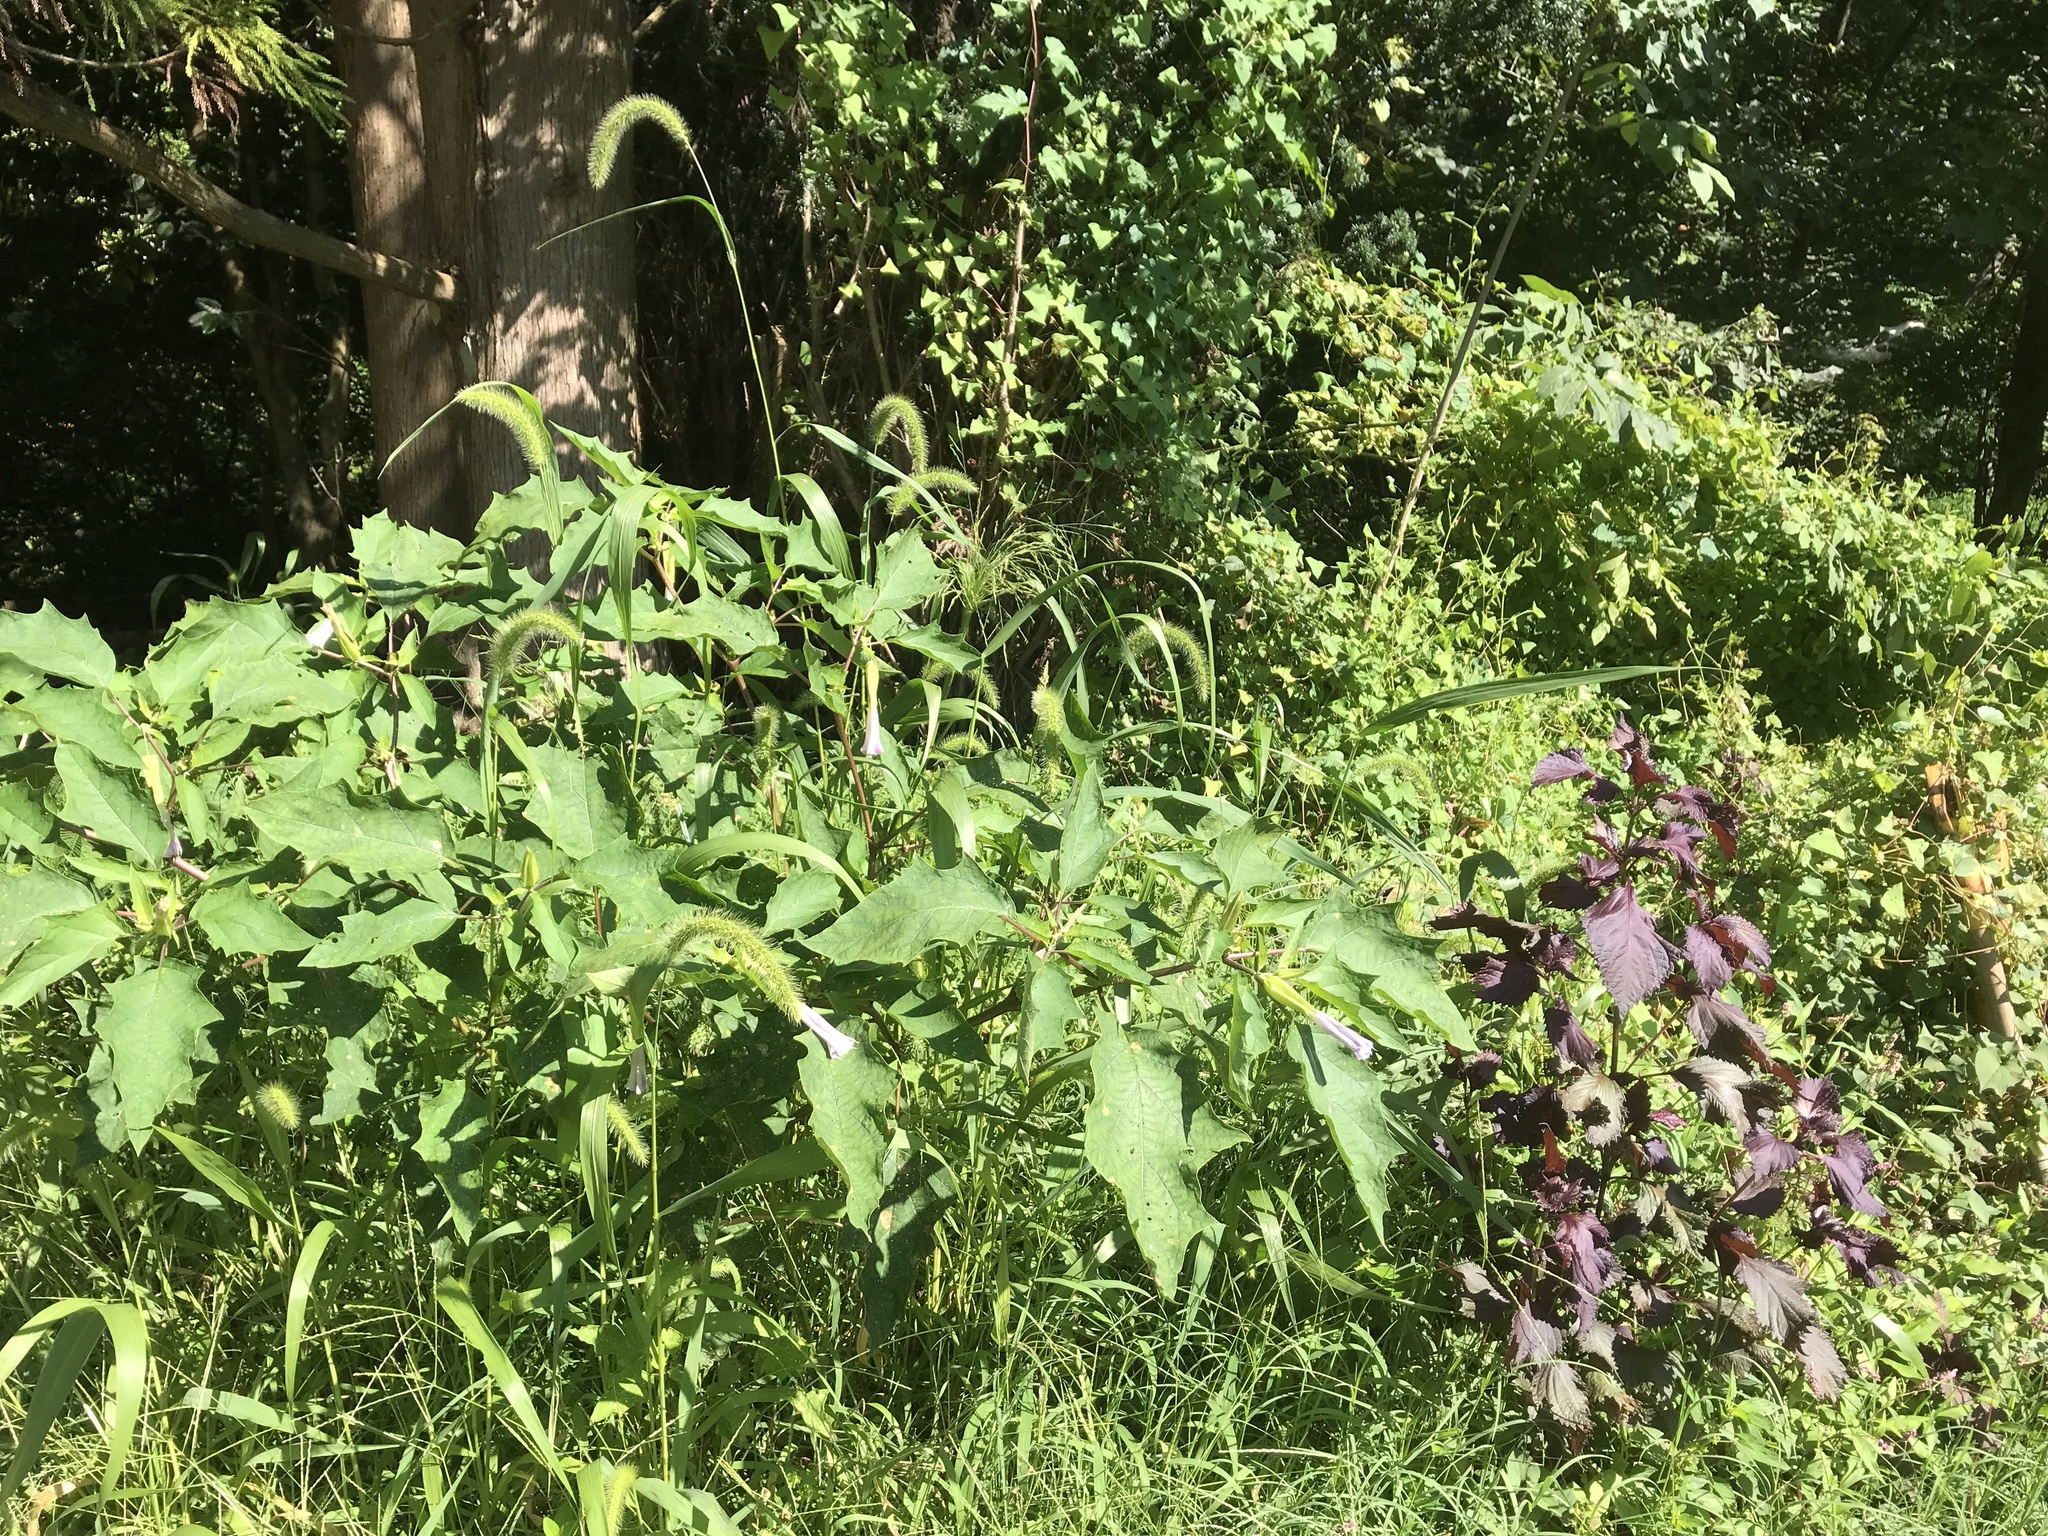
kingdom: Plantae
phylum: Tracheophyta
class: Magnoliopsida
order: Solanales
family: Solanaceae
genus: Datura
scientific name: Datura stramonium
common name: Thorn-apple
